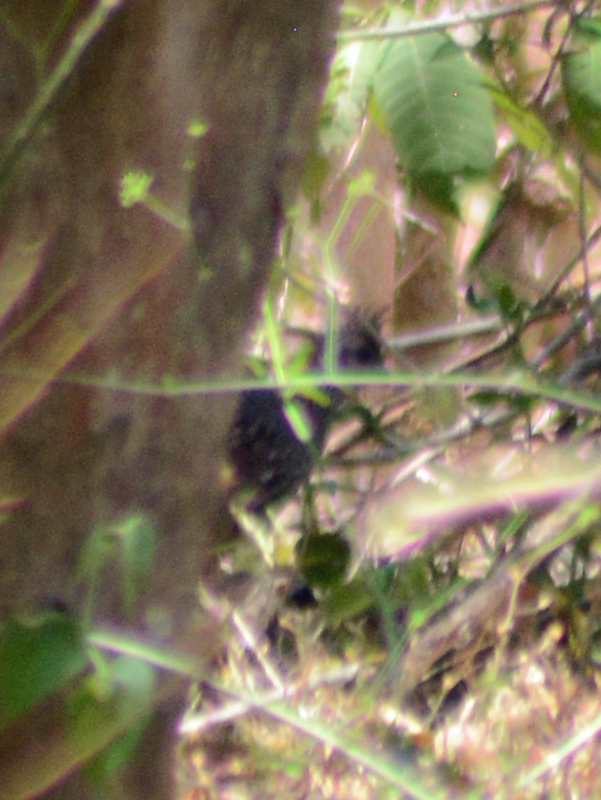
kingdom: Animalia
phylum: Chordata
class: Aves
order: Galliformes
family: Odontophoridae
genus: Callipepla
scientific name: Callipepla douglasii
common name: Elegant quail
